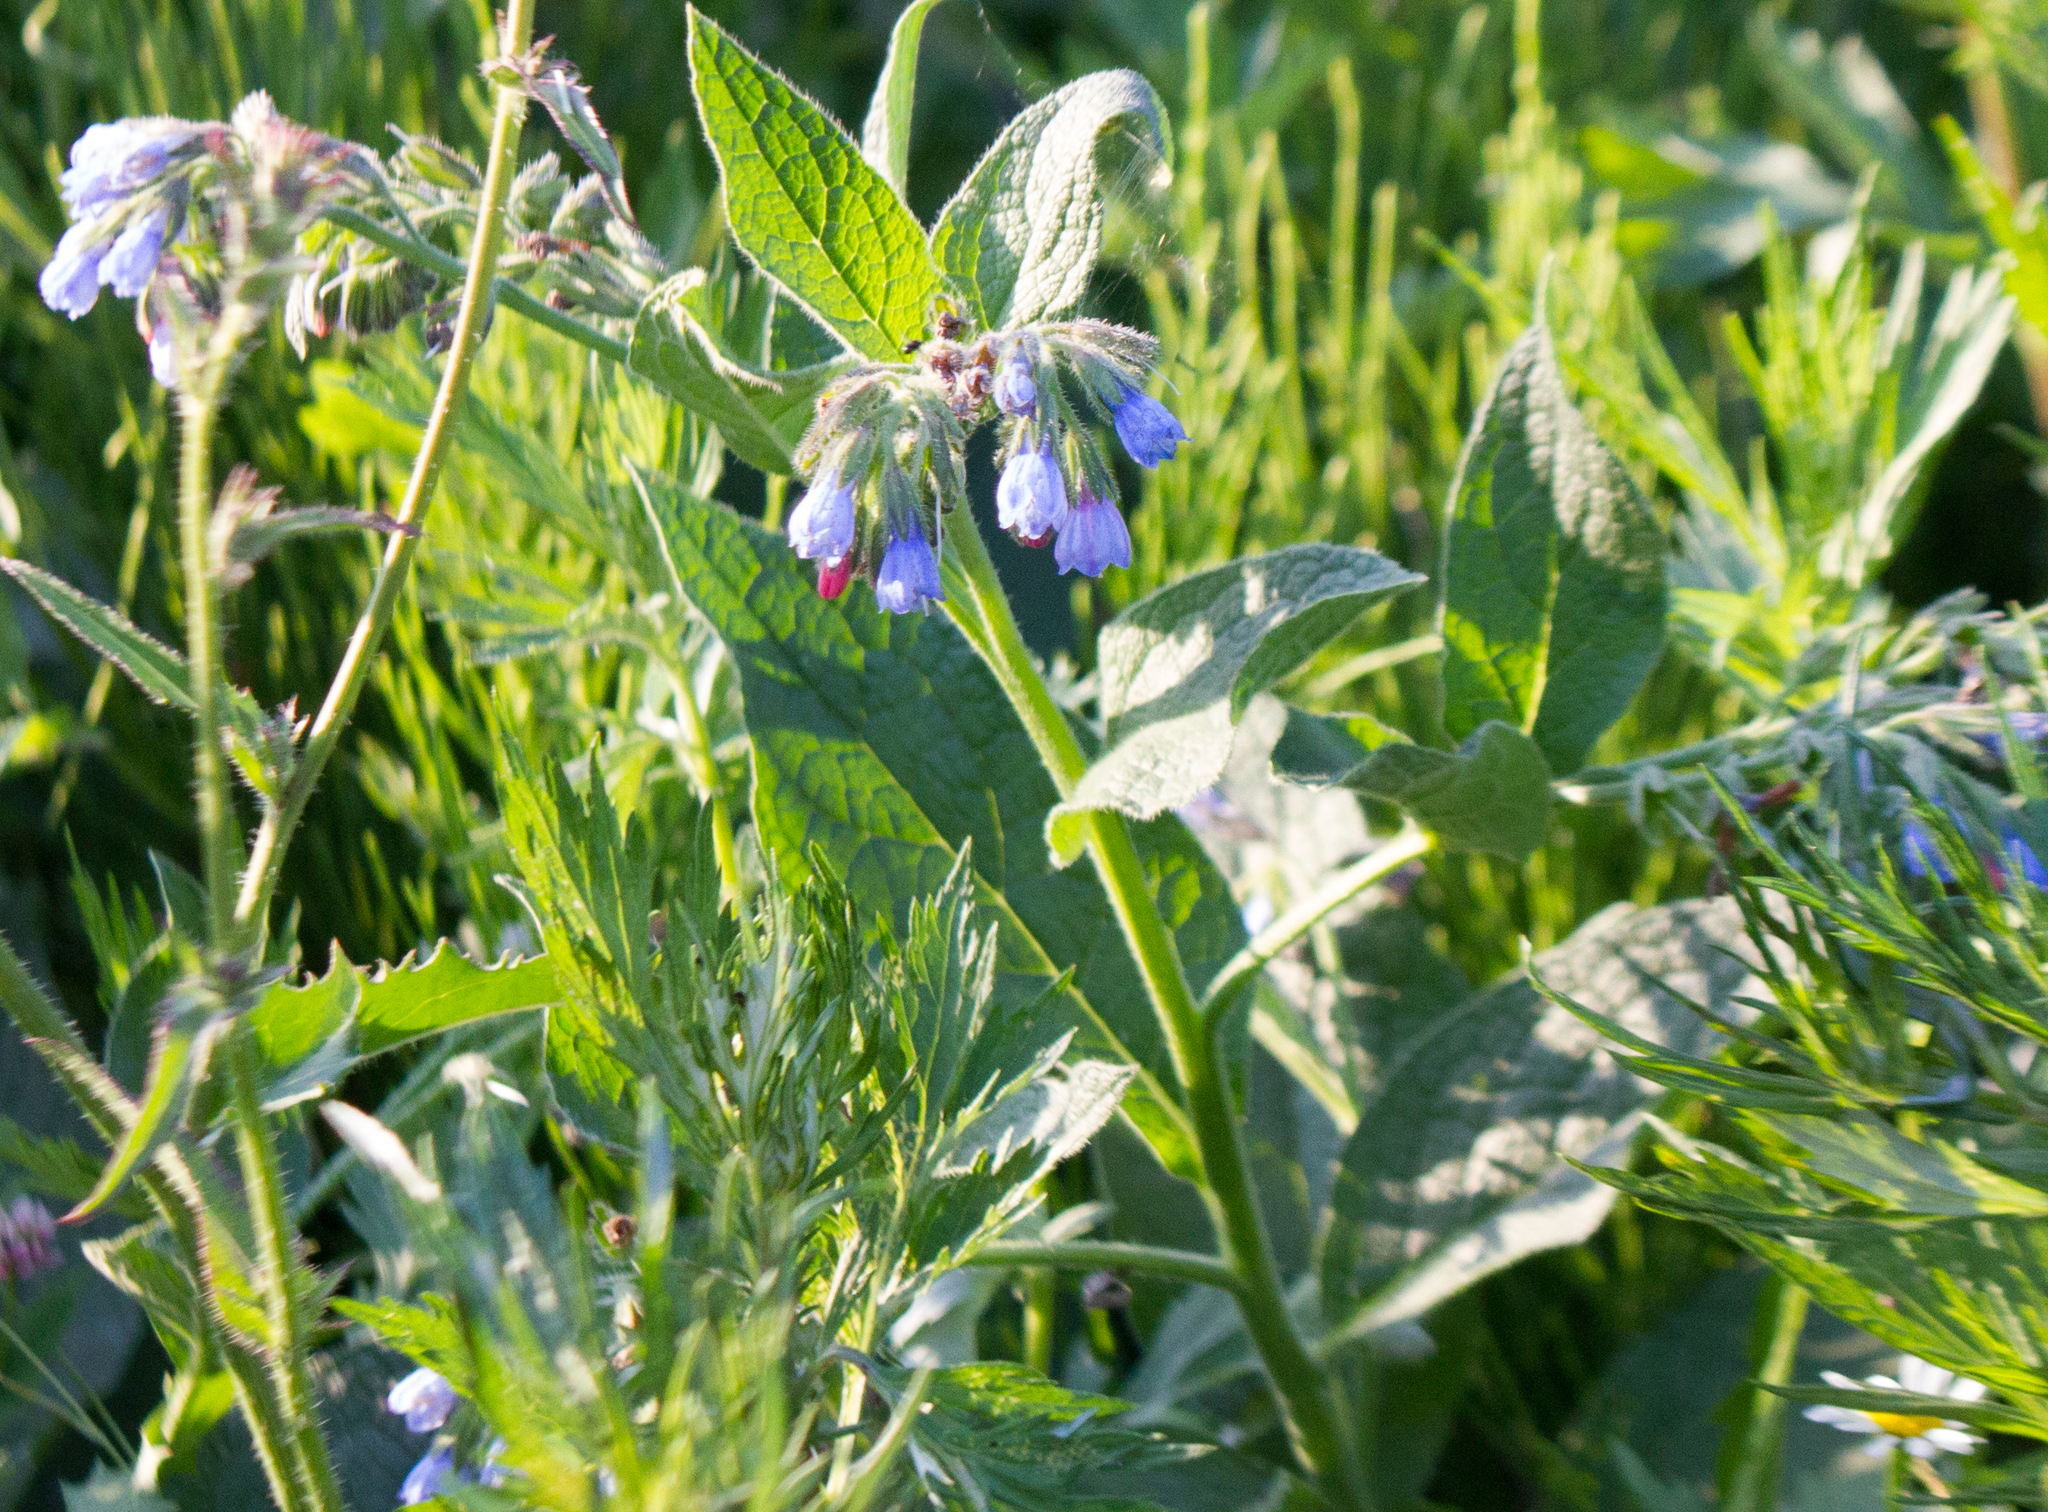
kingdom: Plantae
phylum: Tracheophyta
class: Magnoliopsida
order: Boraginales
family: Boraginaceae
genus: Symphytum
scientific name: Symphytum caucasicum
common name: Caucasian comfrey
